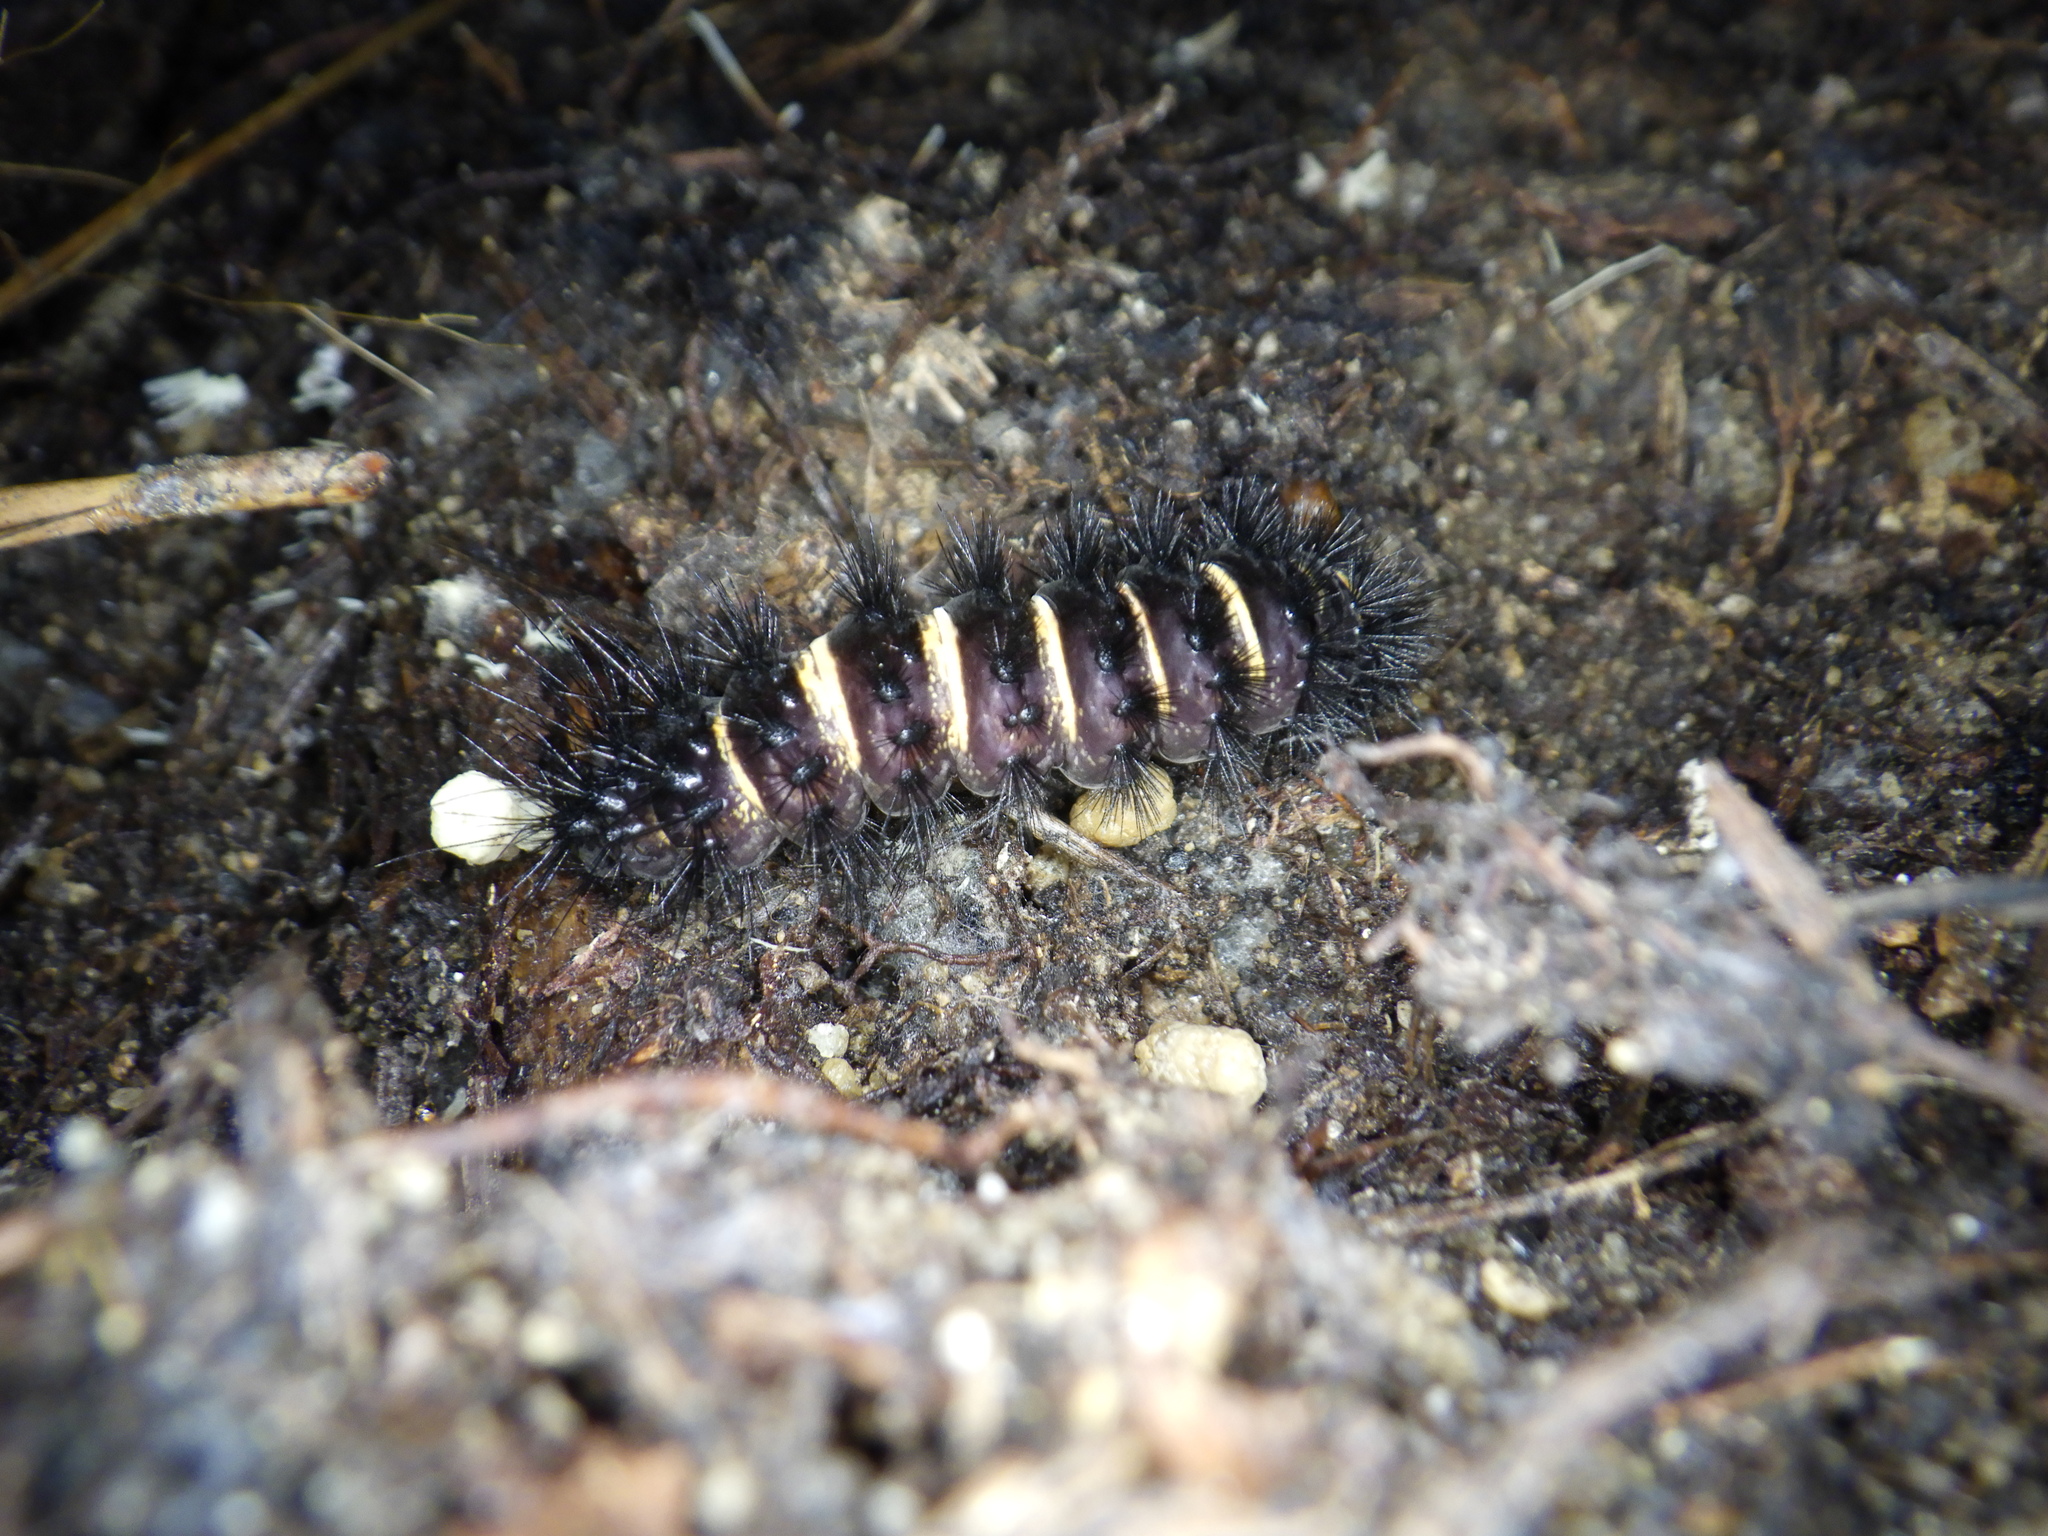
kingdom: Animalia
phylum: Arthropoda
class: Insecta
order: Lepidoptera
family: Erebidae
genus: Spilosoma
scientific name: Spilosoma congrua
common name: Agreeable tiger moth
